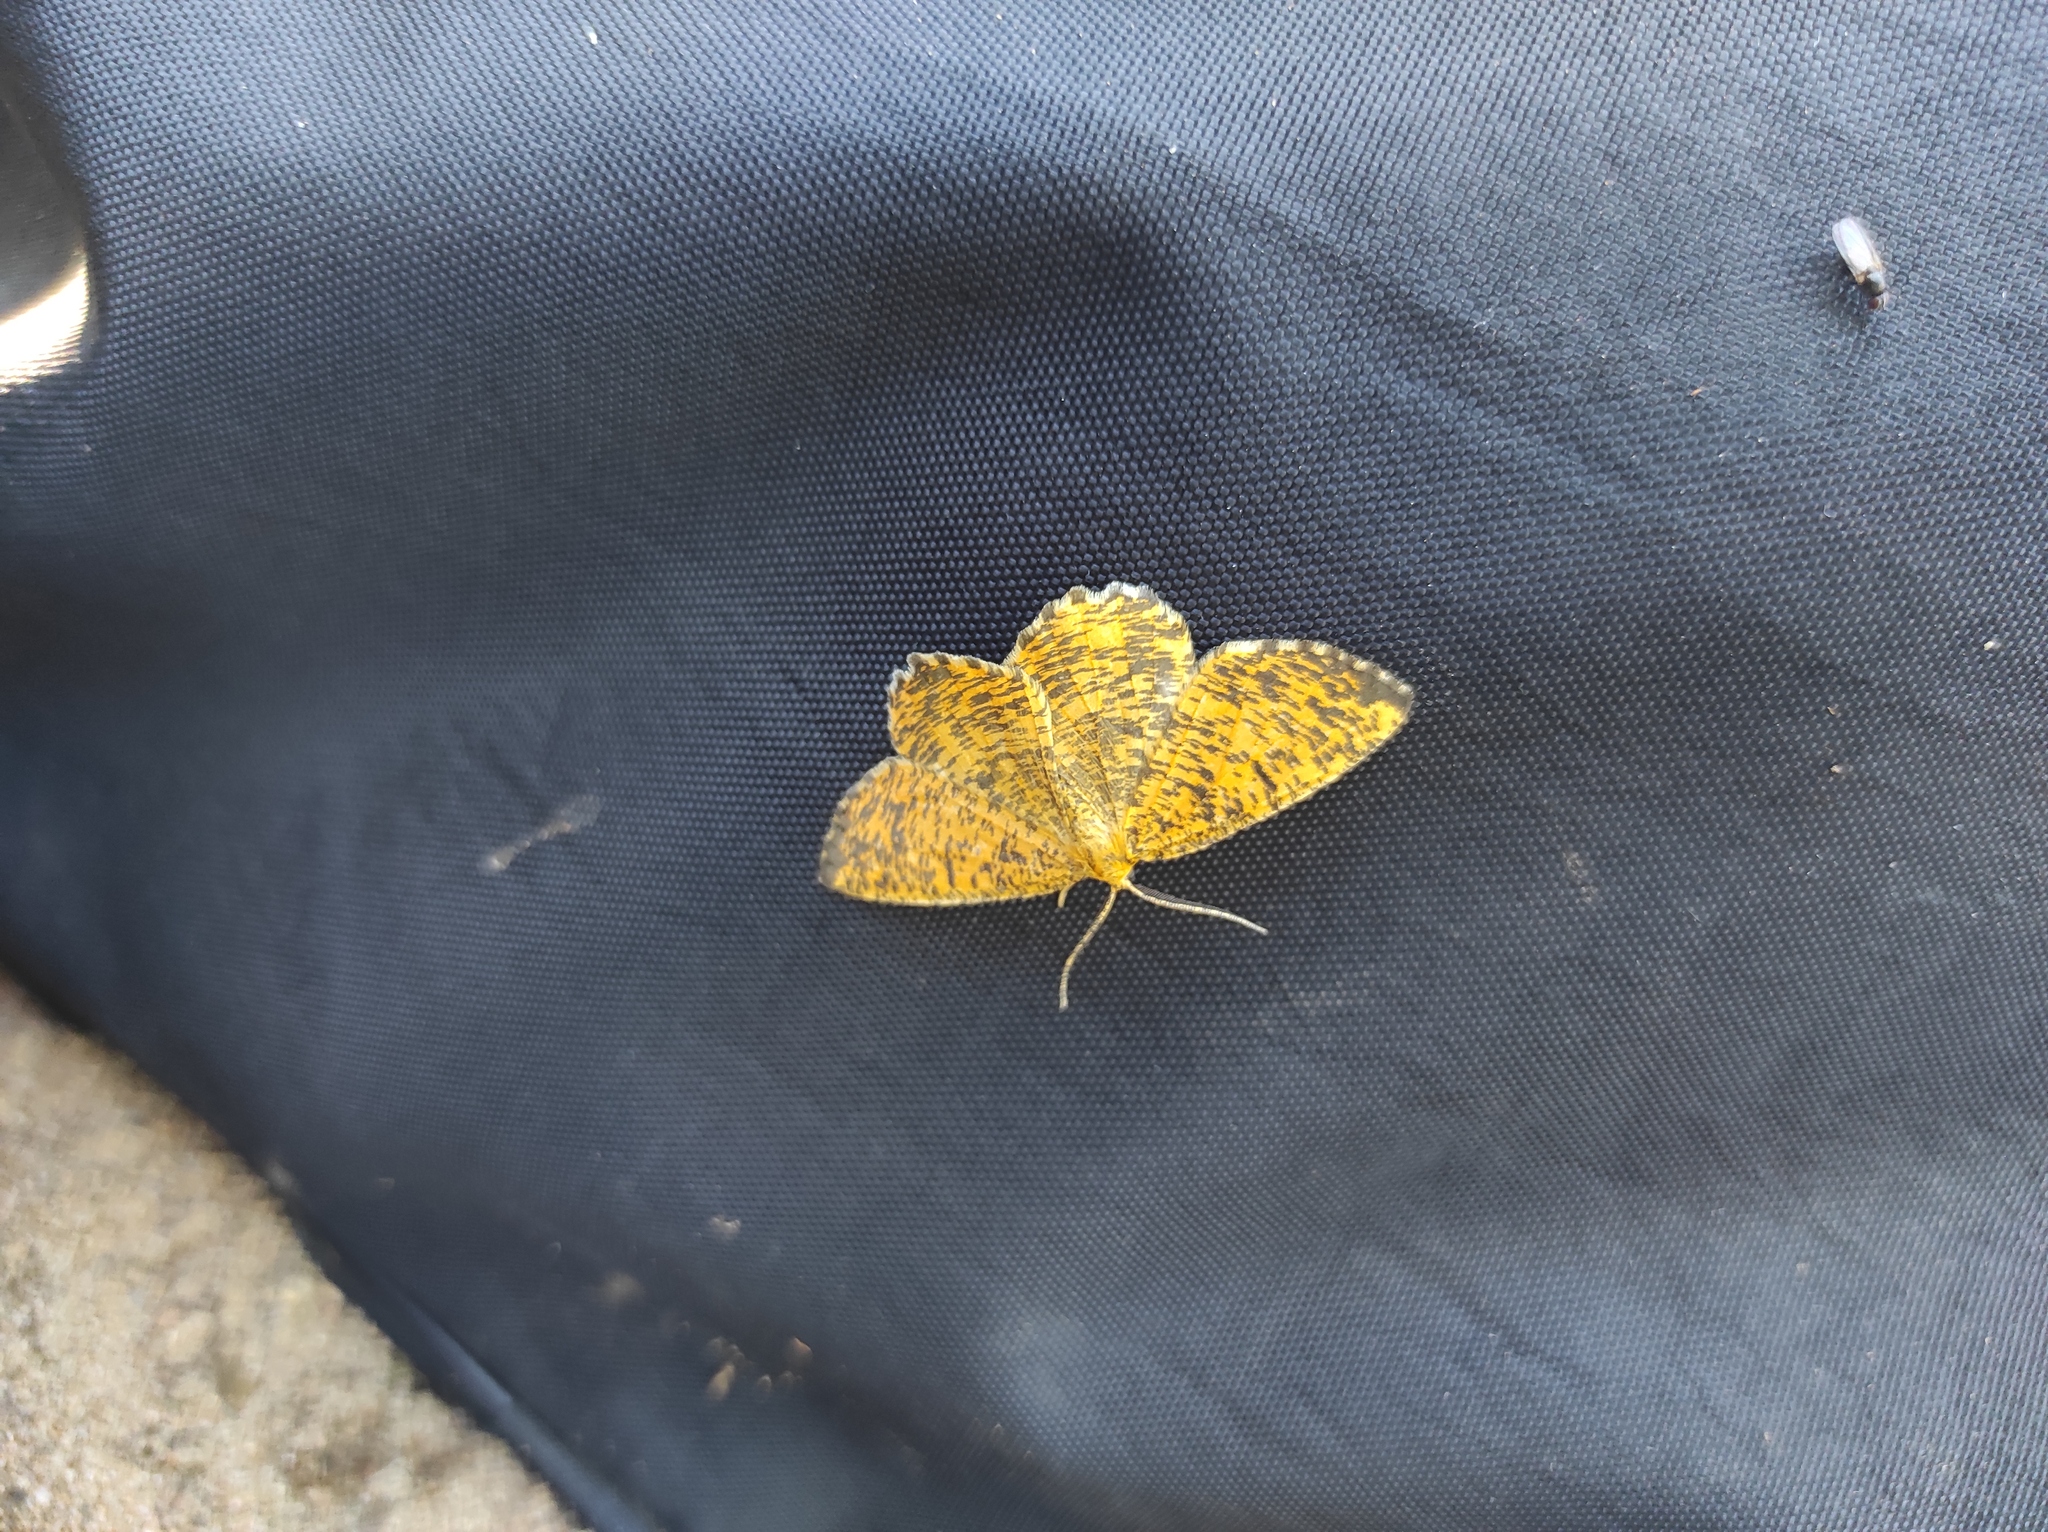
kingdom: Animalia
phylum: Arthropoda
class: Insecta
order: Lepidoptera
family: Geometridae
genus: Angerona
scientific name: Angerona prunaria
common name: Orange moth
